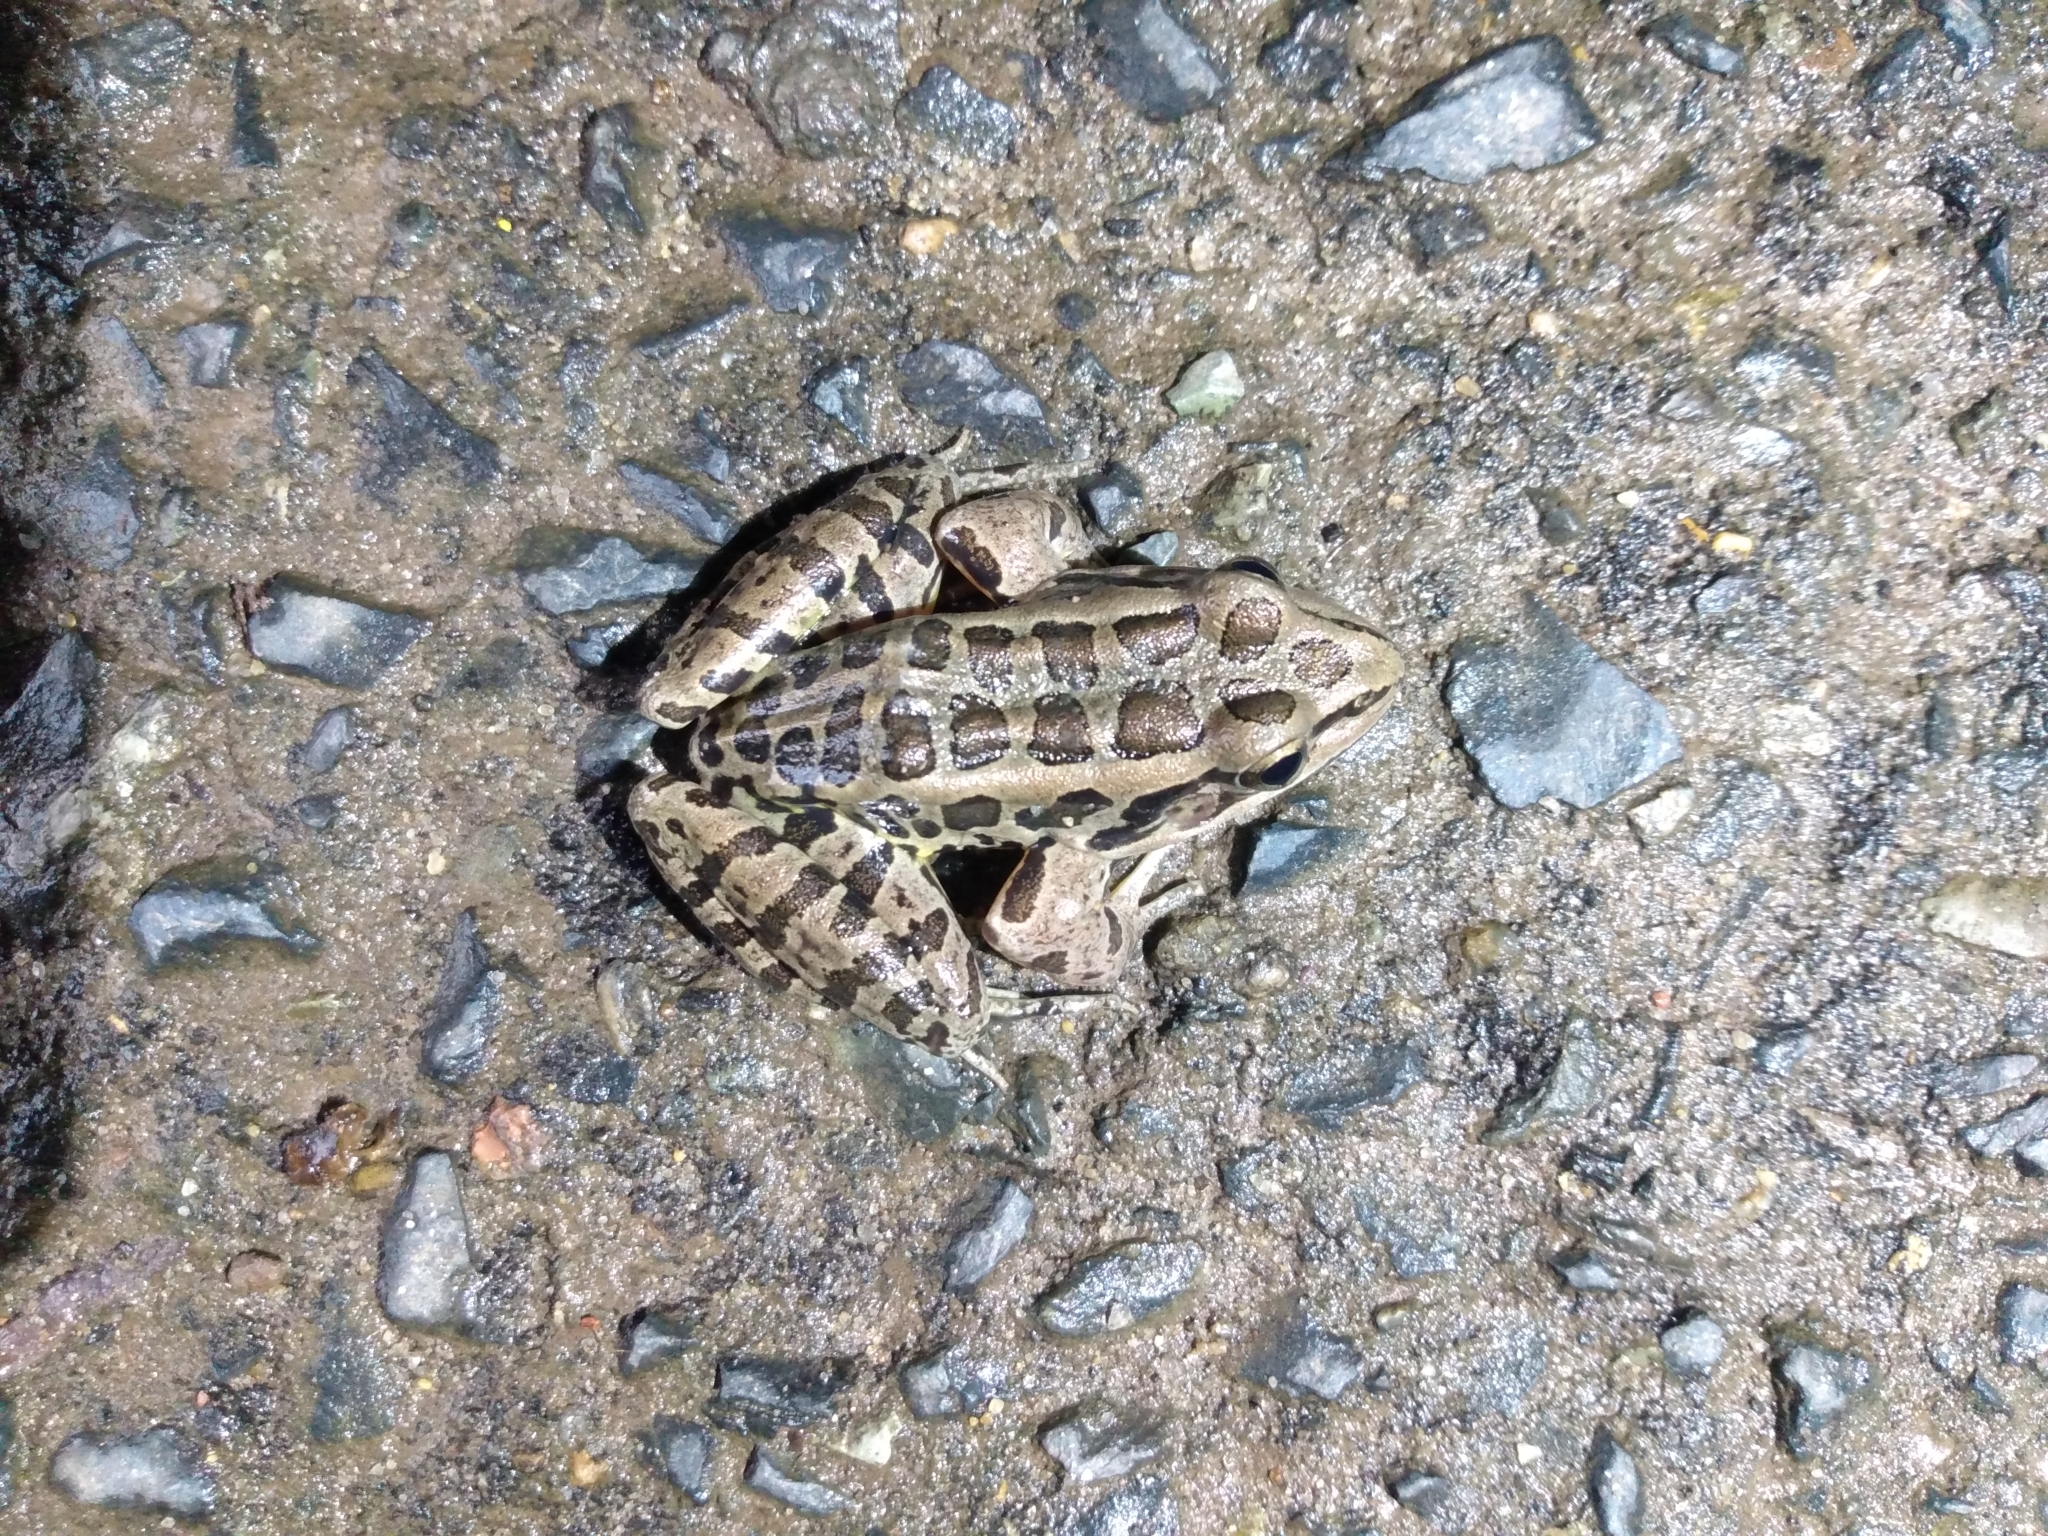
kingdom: Animalia
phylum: Chordata
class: Amphibia
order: Anura
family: Ranidae
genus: Lithobates
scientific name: Lithobates palustris
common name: Pickerel frog
